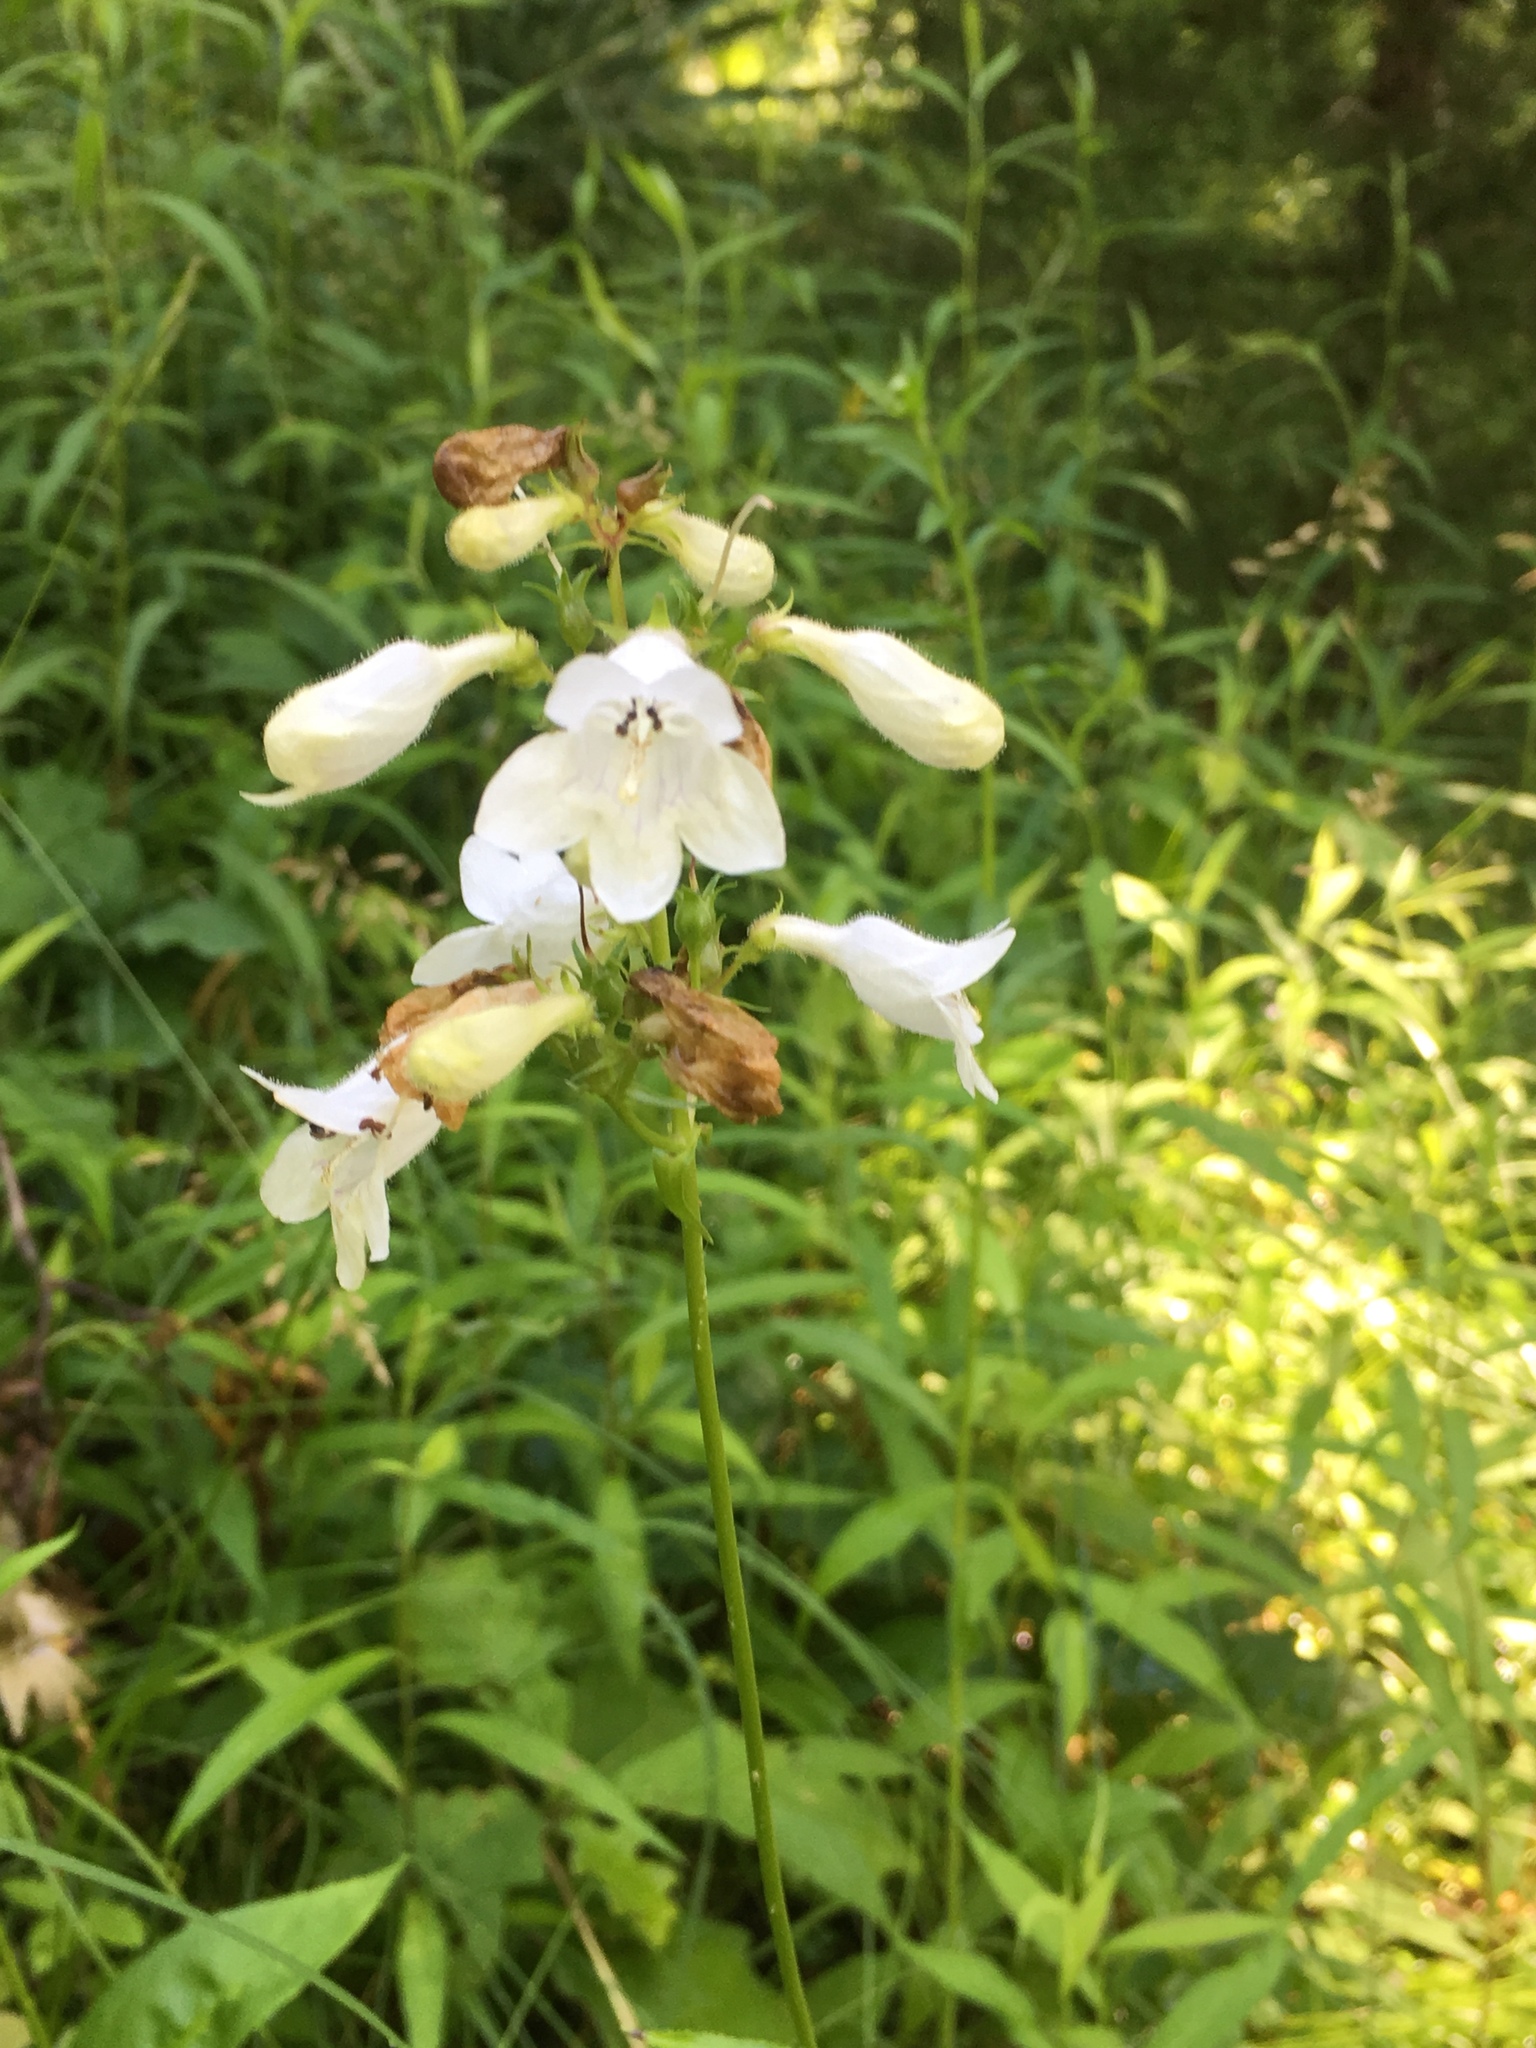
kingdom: Plantae
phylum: Tracheophyta
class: Magnoliopsida
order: Lamiales
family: Plantaginaceae
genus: Penstemon
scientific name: Penstemon digitalis
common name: Foxglove beardtongue
